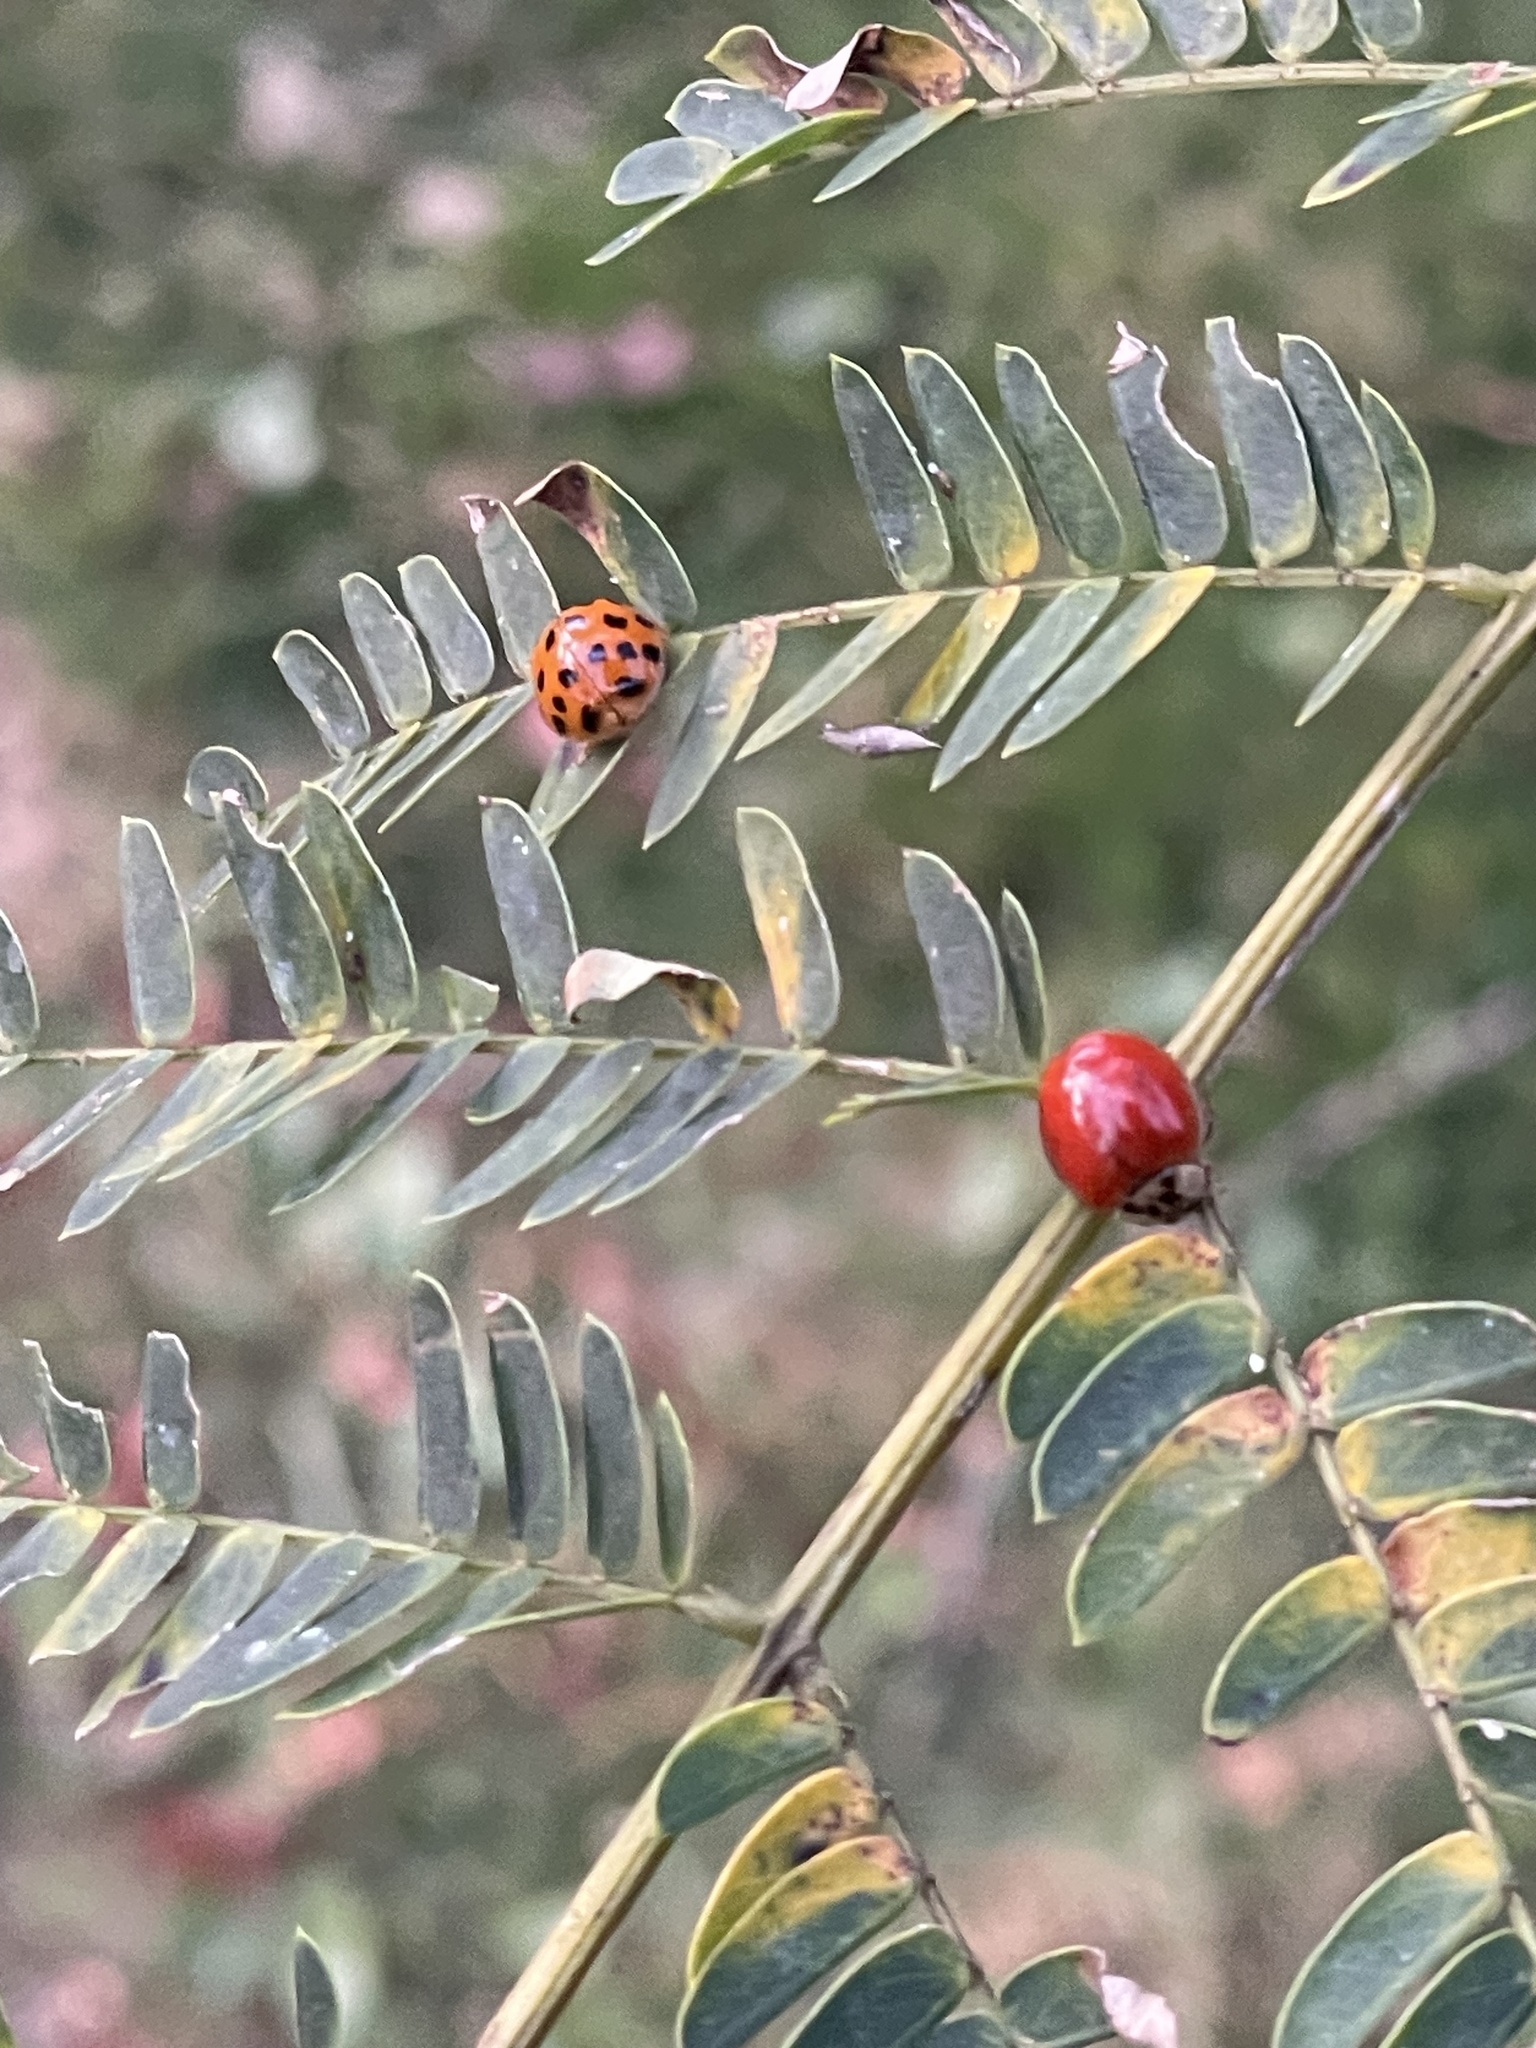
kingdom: Animalia
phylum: Arthropoda
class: Insecta
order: Coleoptera
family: Coccinellidae
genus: Harmonia
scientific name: Harmonia axyridis
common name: Harlequin ladybird
